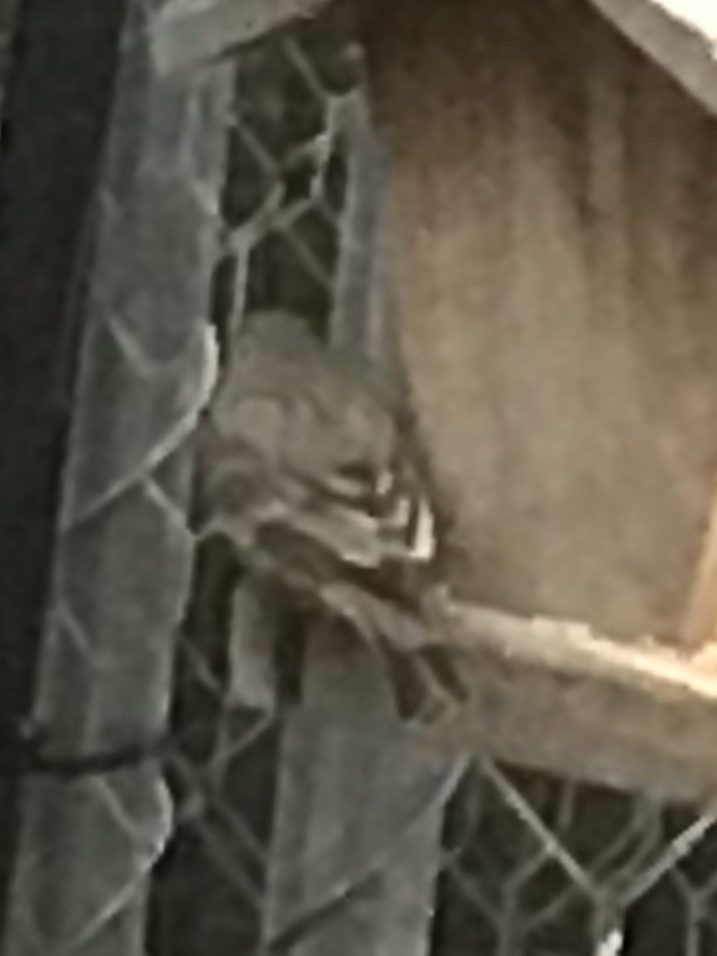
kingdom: Animalia
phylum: Chordata
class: Aves
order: Passeriformes
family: Fringillidae
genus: Haemorhous
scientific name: Haemorhous mexicanus
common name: House finch
